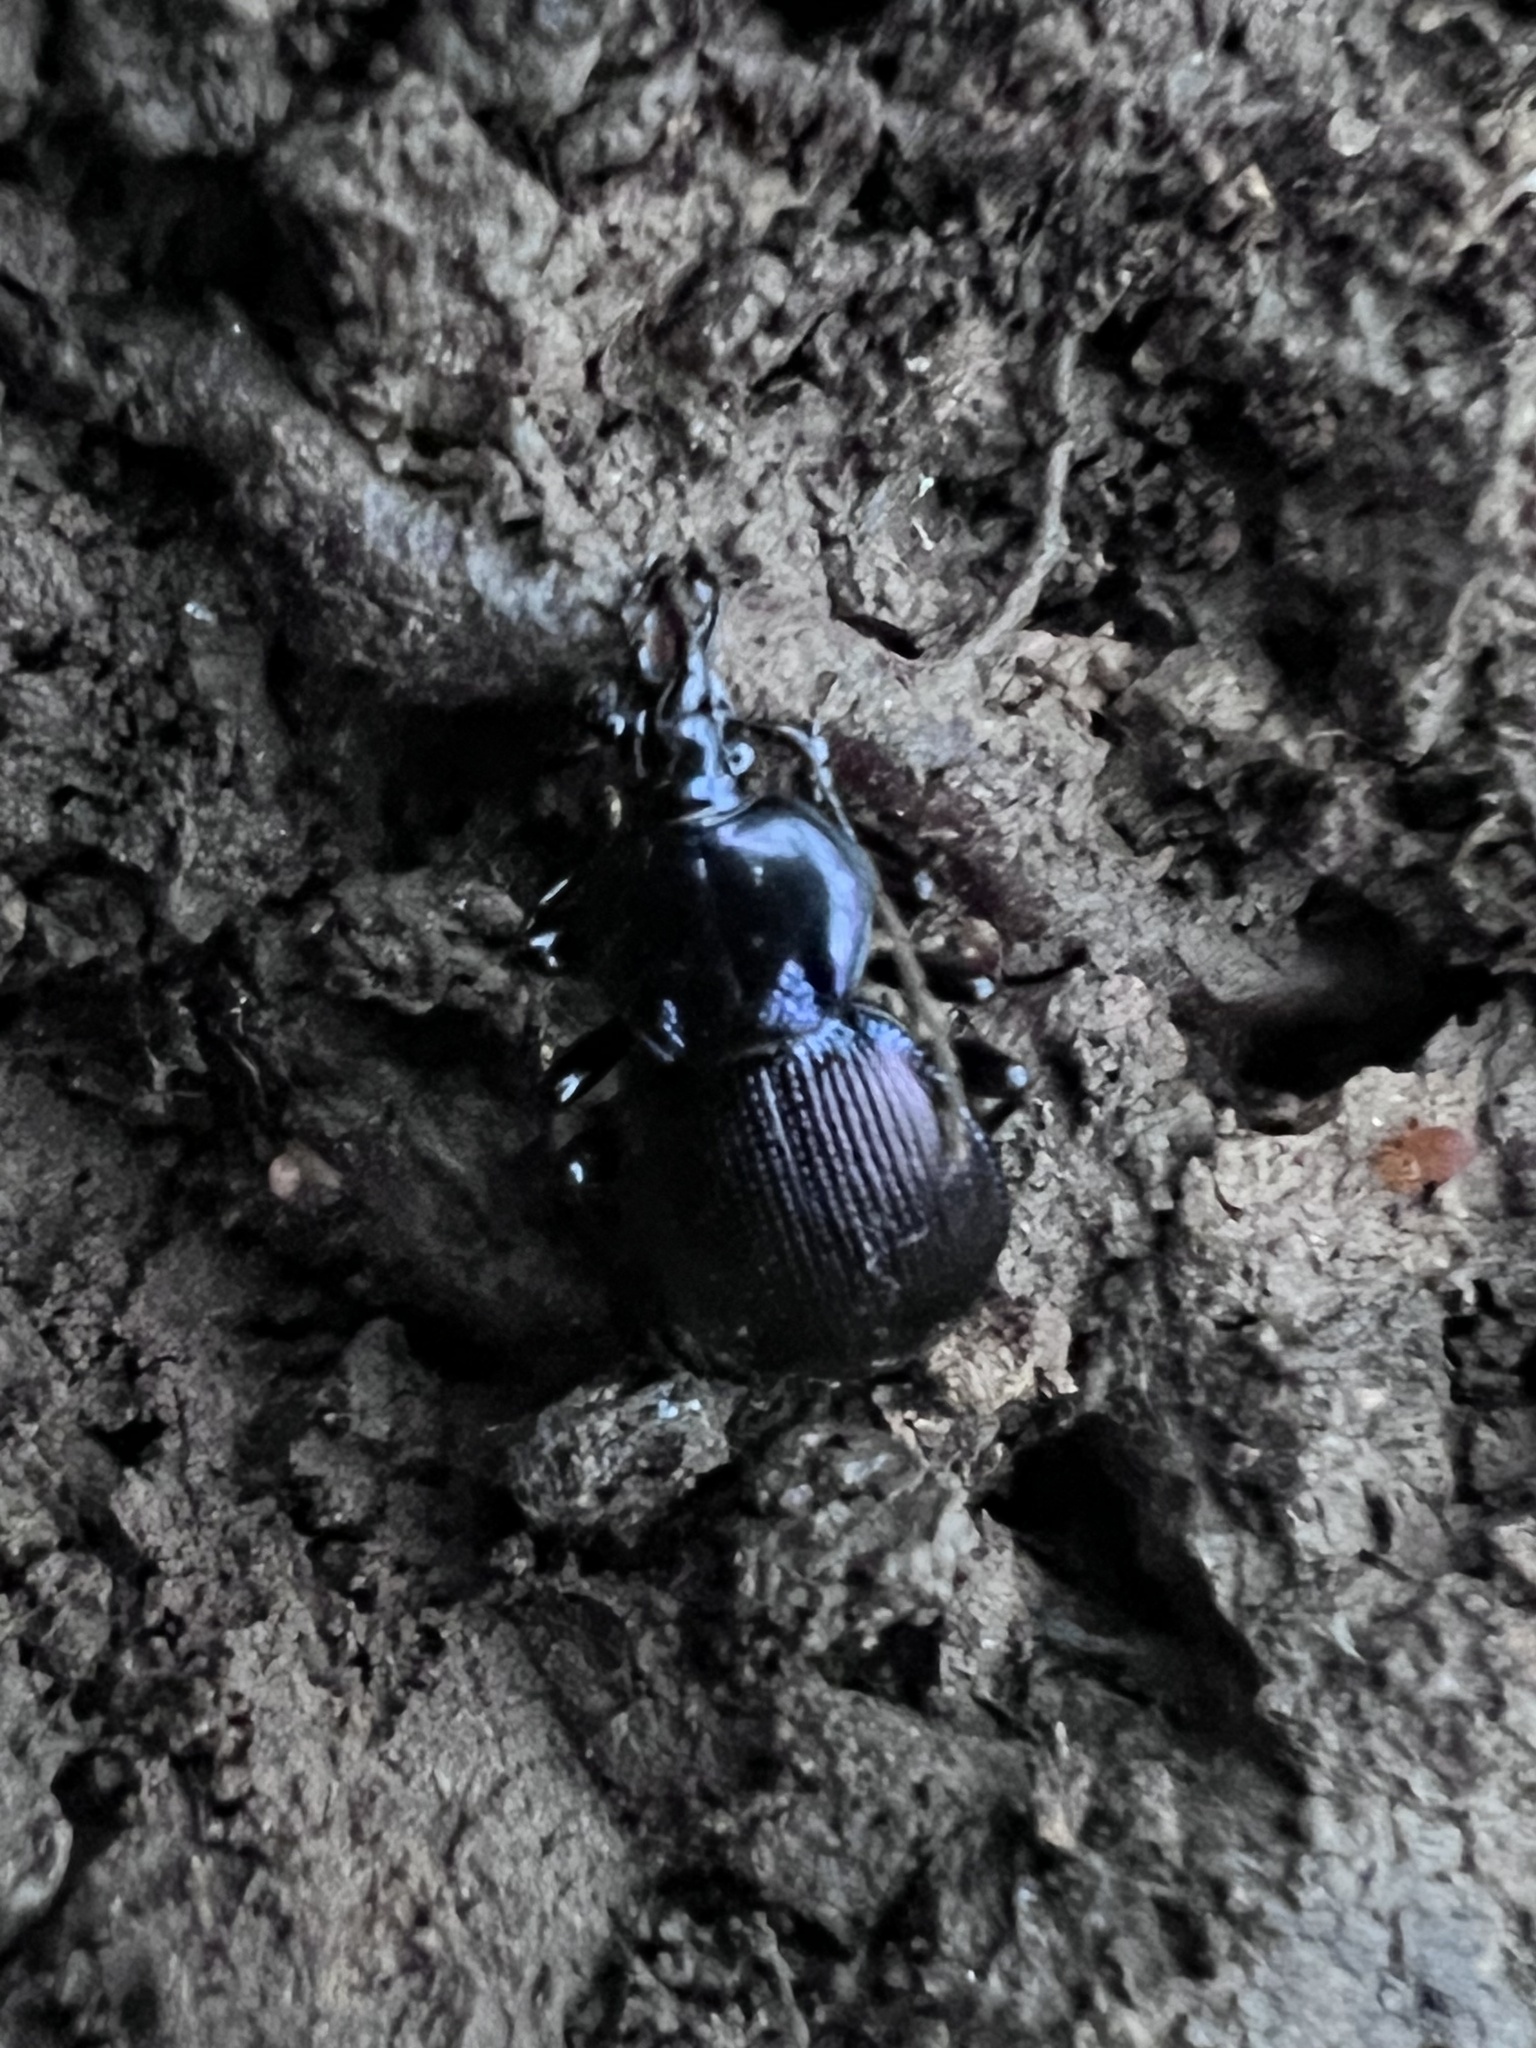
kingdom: Animalia
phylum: Arthropoda
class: Insecta
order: Coleoptera
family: Carabidae
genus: Sphaeroderus
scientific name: Sphaeroderus stenostomus
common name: Small snail-eating ground beetle
